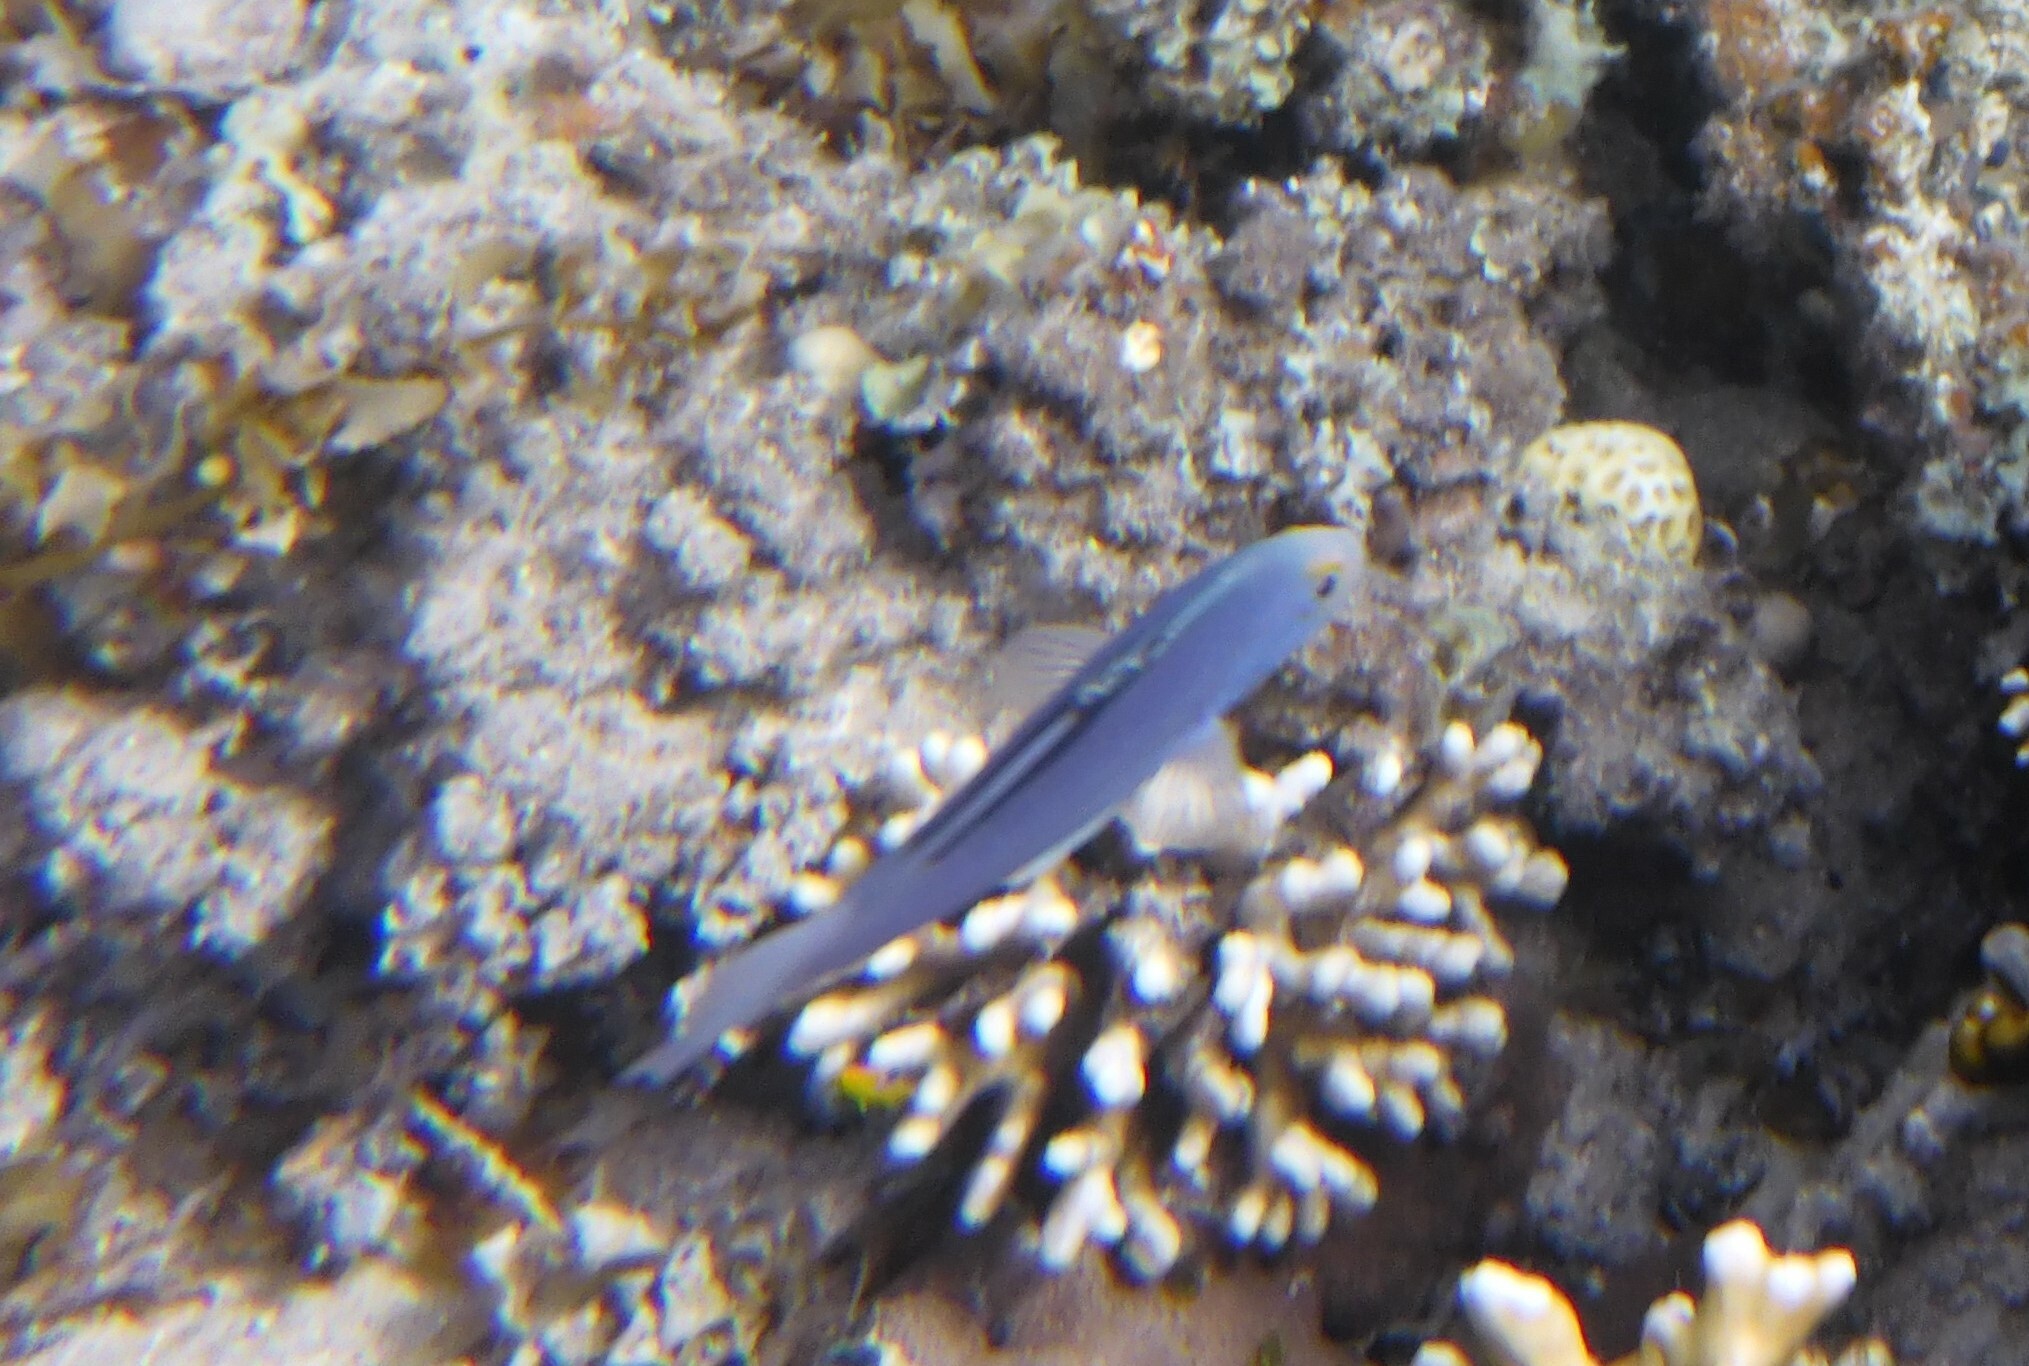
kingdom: Animalia
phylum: Chordata
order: Perciformes
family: Serranidae
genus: Diploprion
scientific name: Diploprion drachi
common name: Yellowface soapfish
